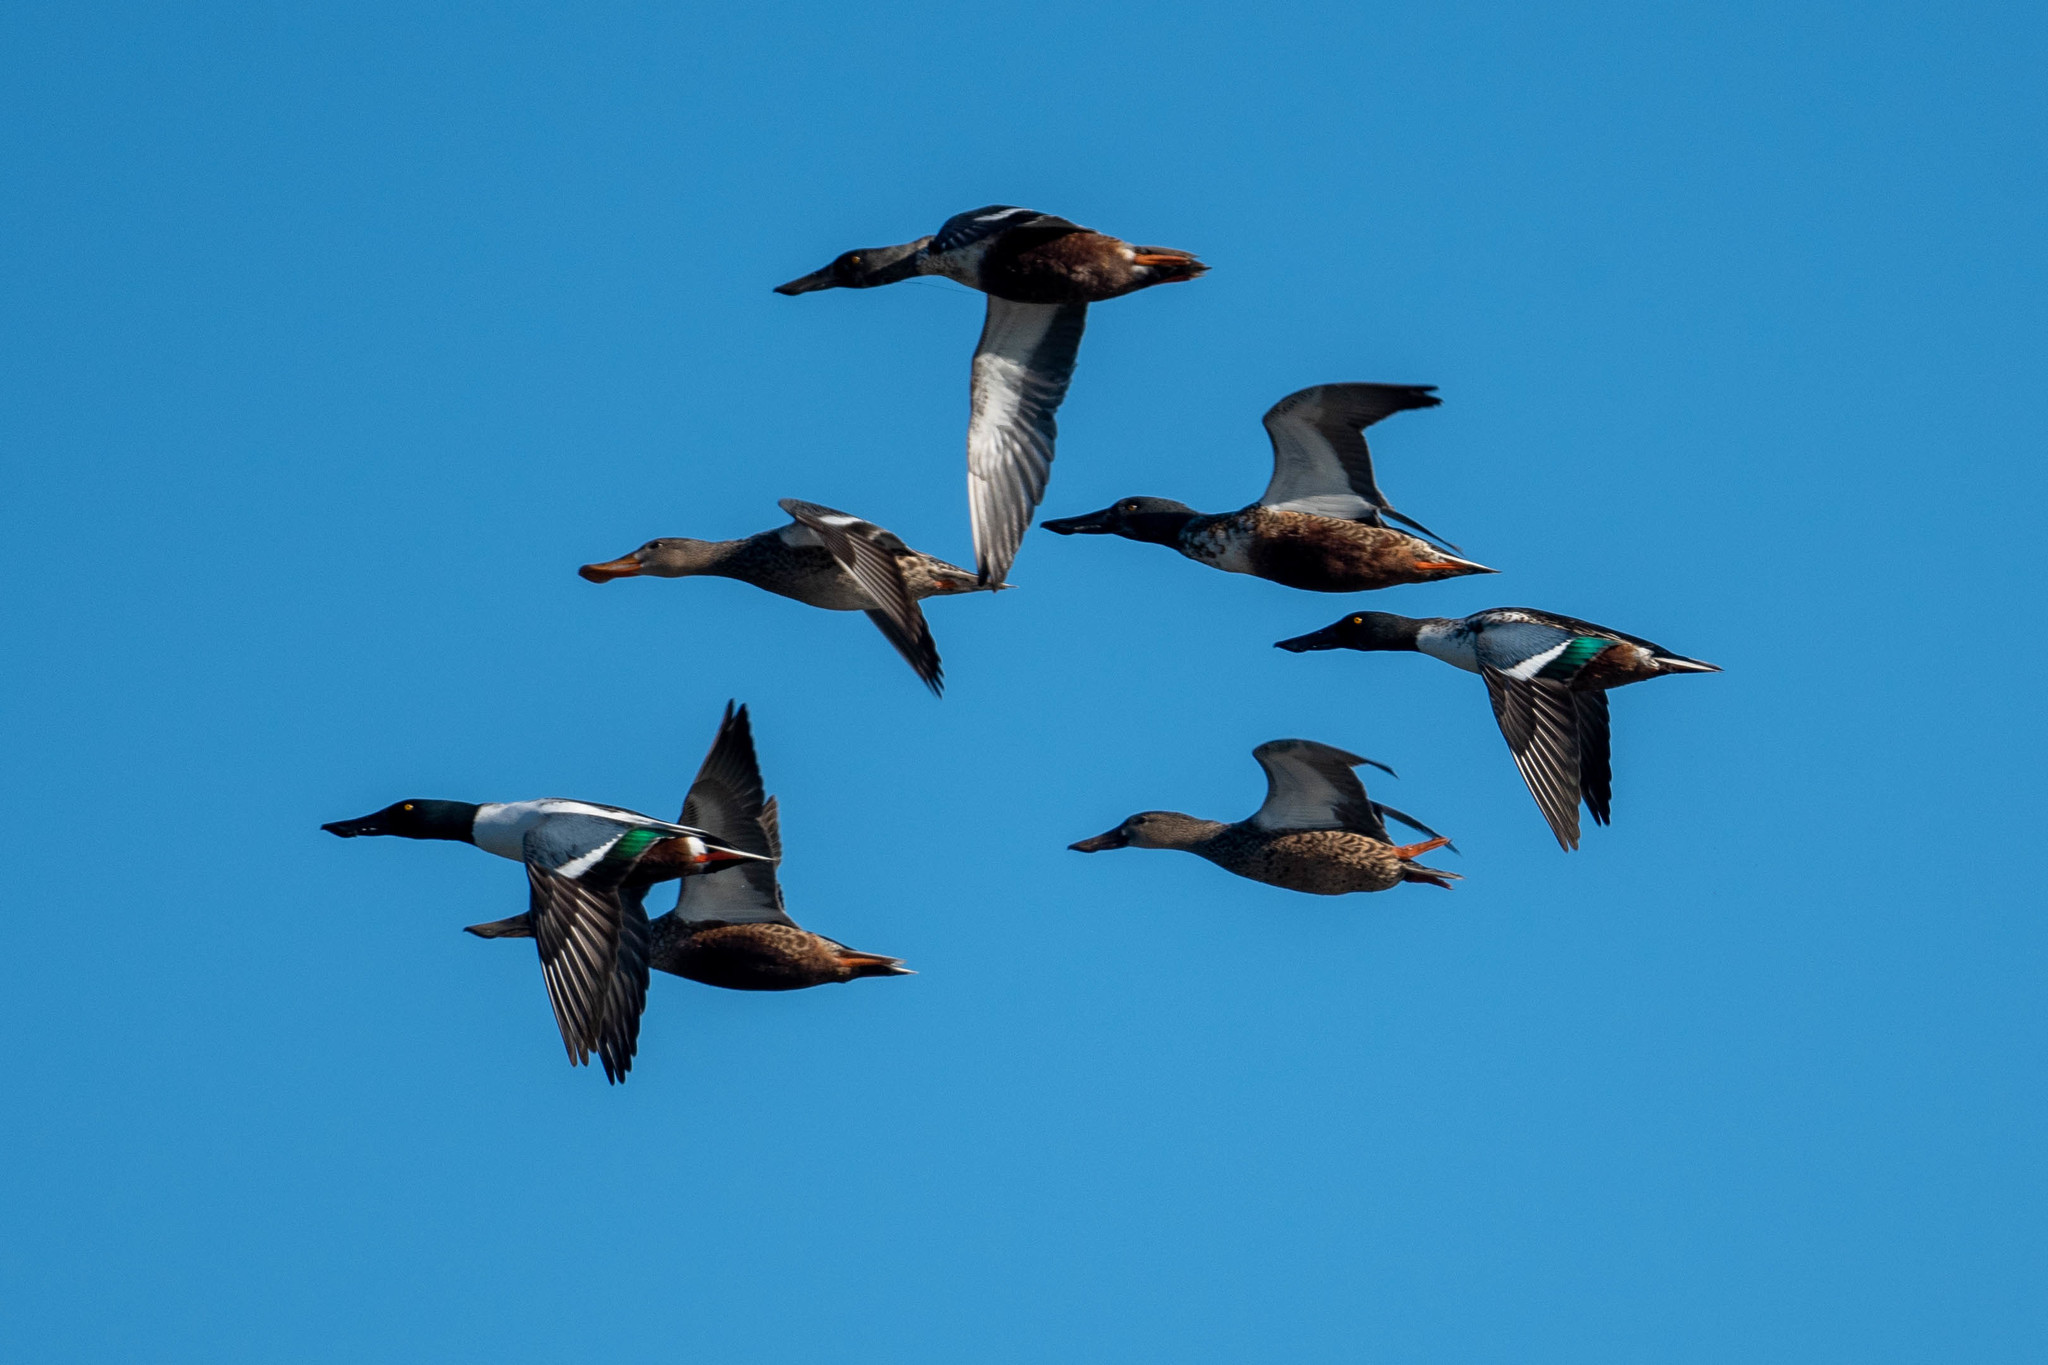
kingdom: Animalia
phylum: Chordata
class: Aves
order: Anseriformes
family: Anatidae
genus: Spatula
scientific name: Spatula clypeata
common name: Northern shoveler
